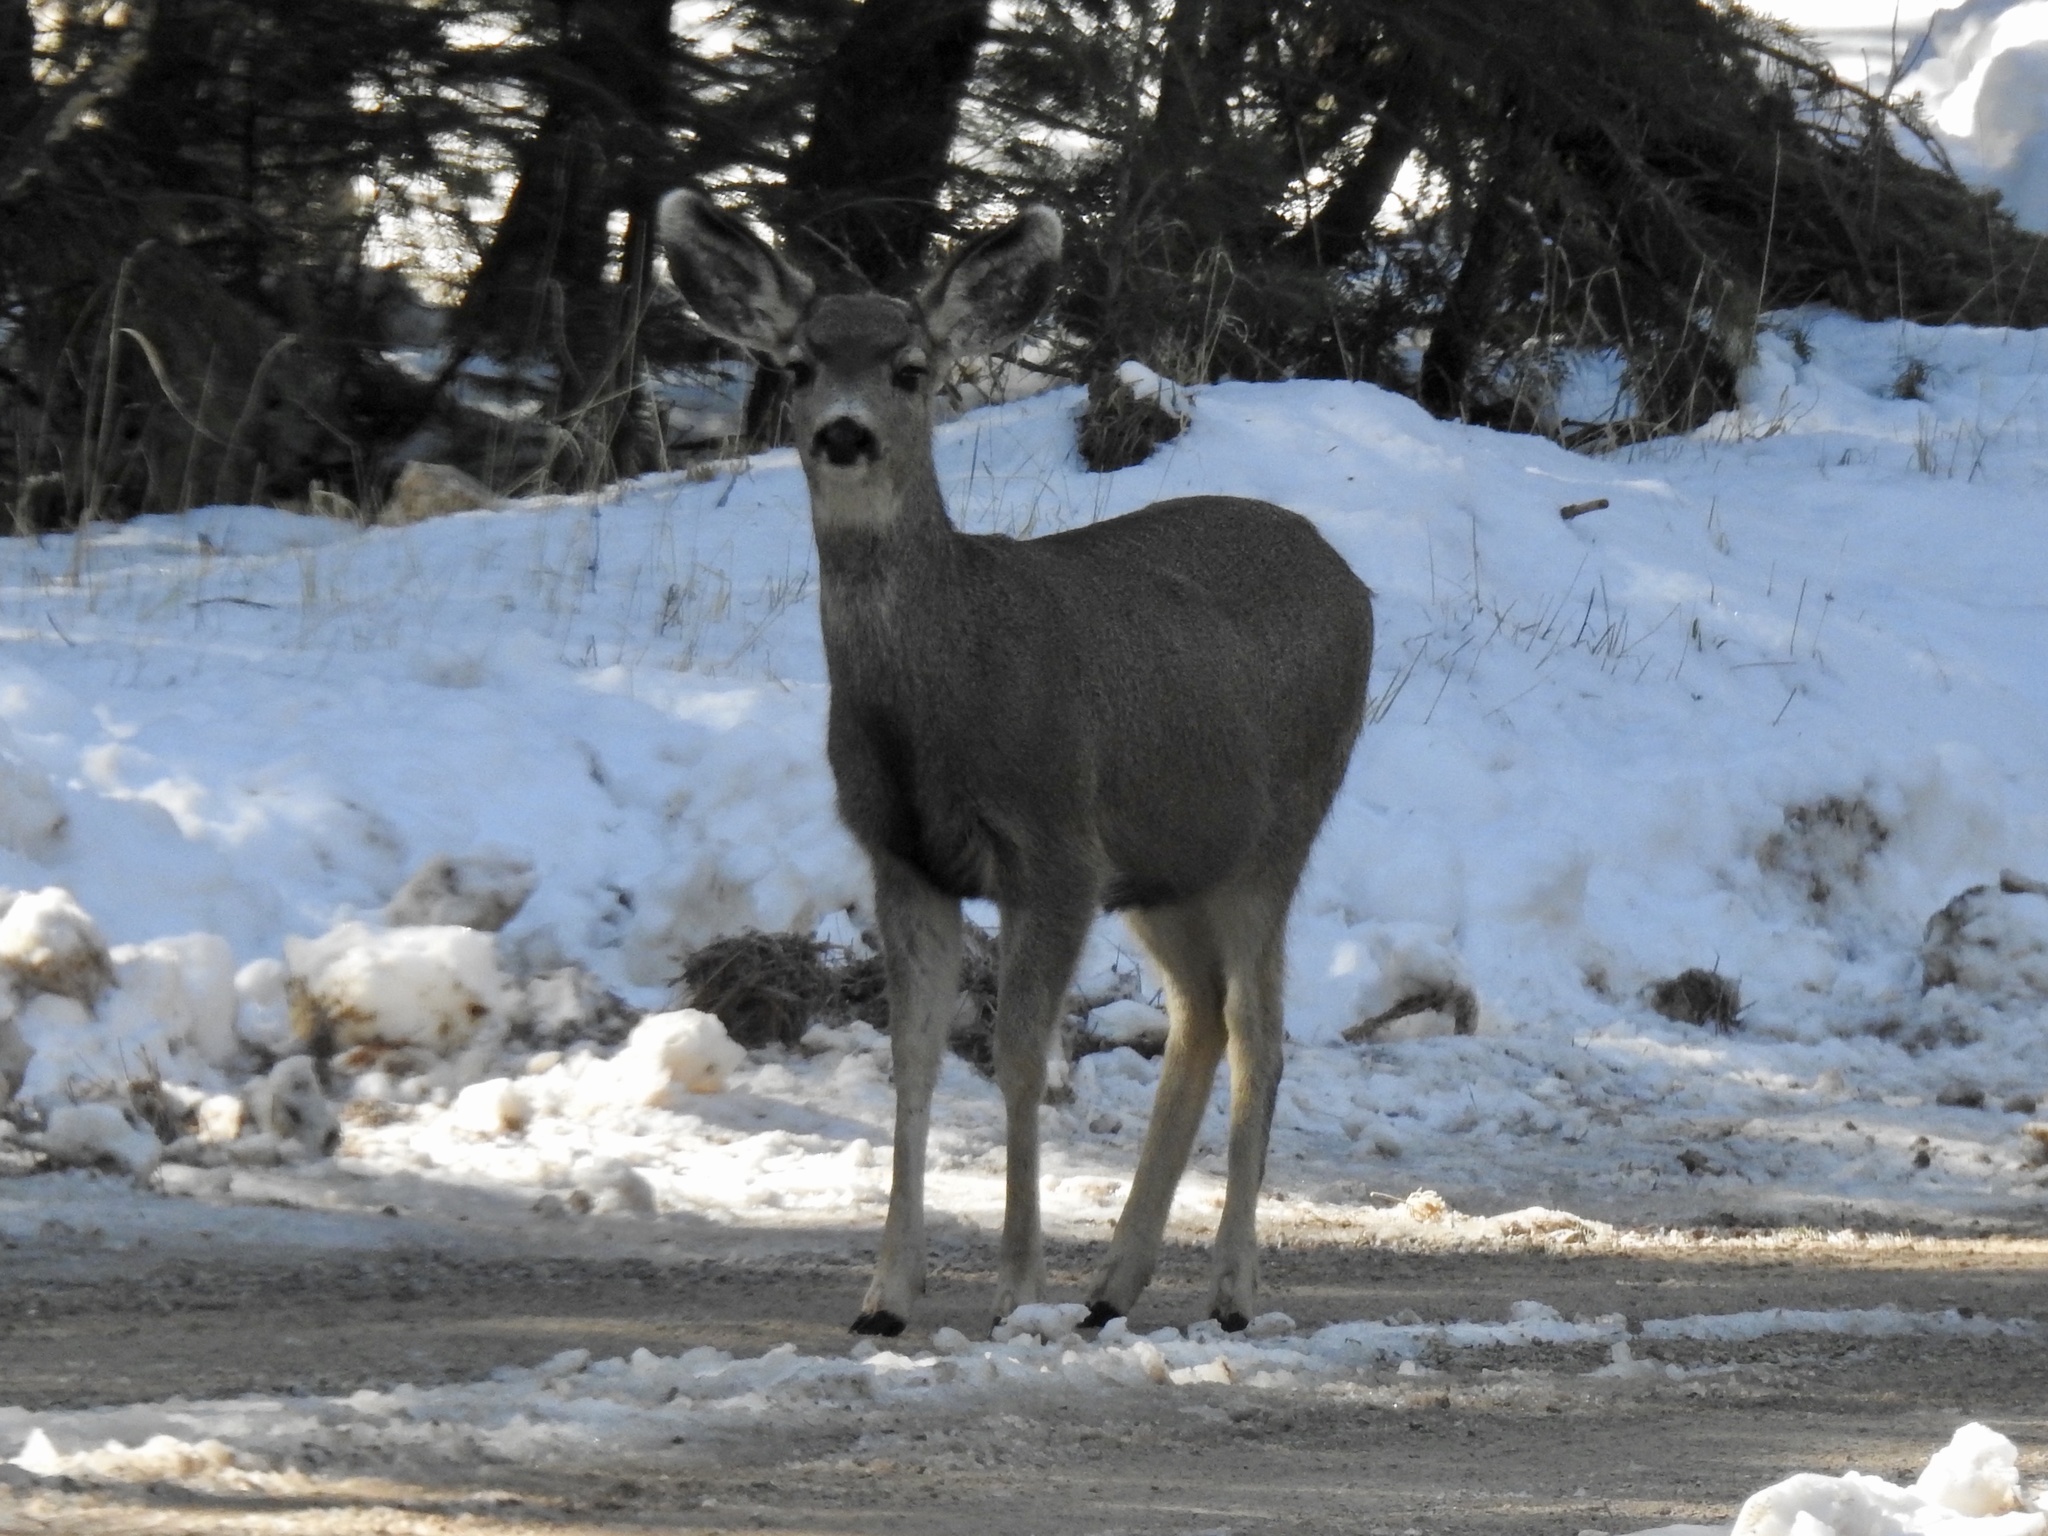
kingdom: Animalia
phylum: Chordata
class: Mammalia
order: Artiodactyla
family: Cervidae
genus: Odocoileus
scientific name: Odocoileus hemionus
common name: Mule deer
